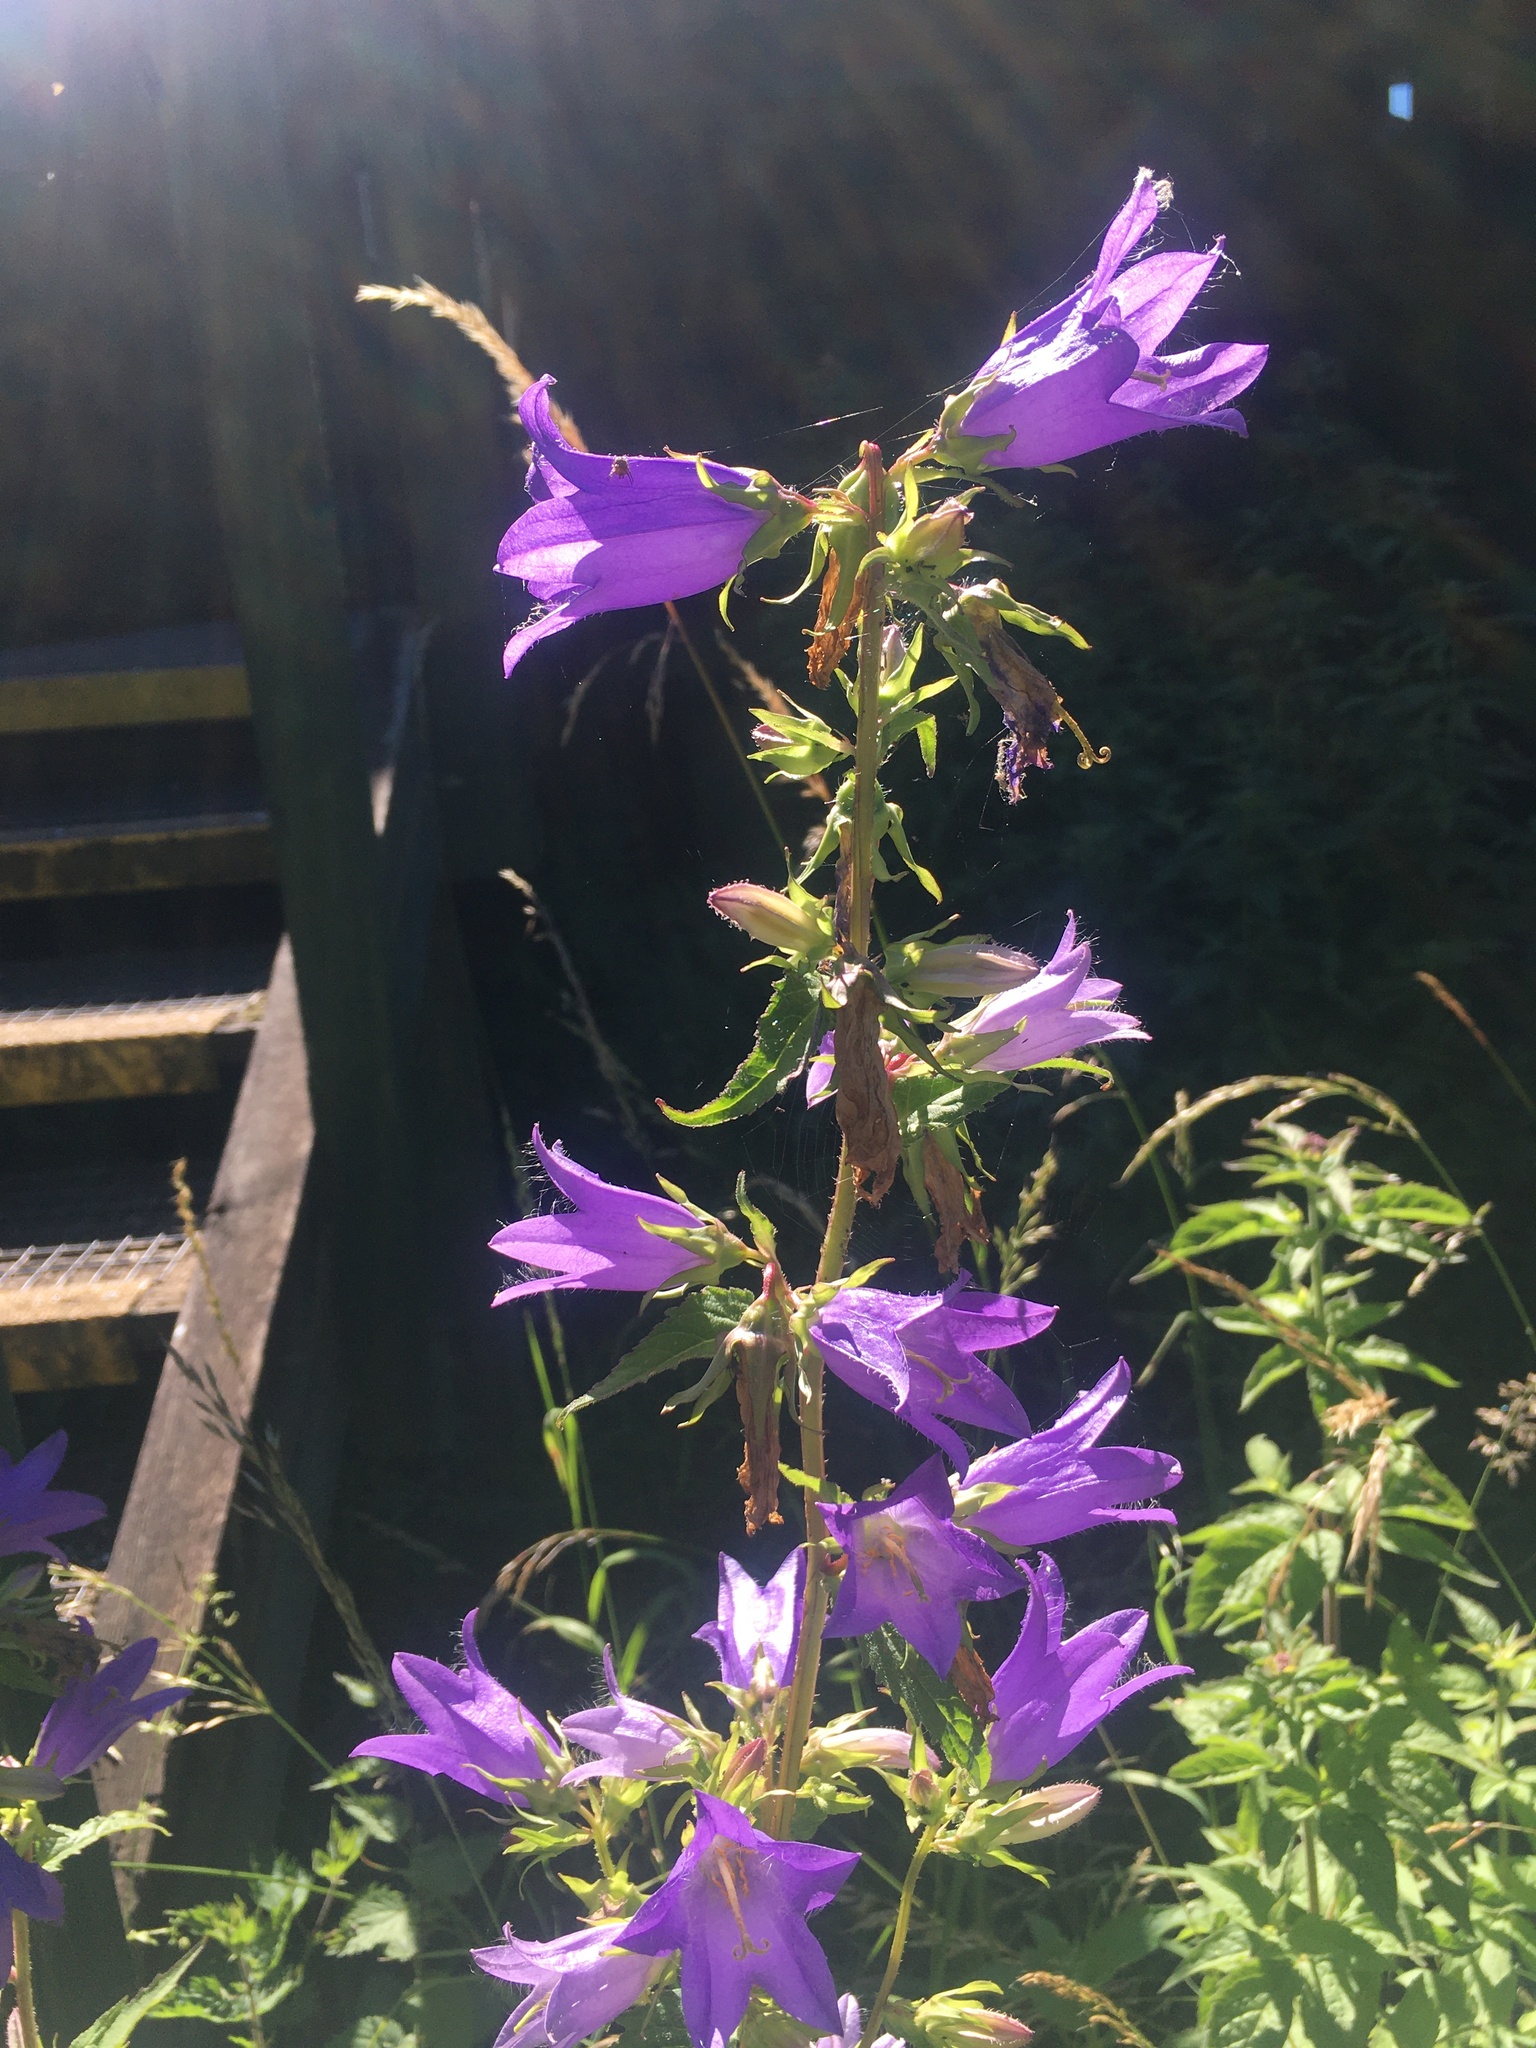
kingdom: Plantae
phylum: Tracheophyta
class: Magnoliopsida
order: Asterales
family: Campanulaceae
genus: Campanula
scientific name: Campanula trachelium
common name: Nettle-leaved bellflower
